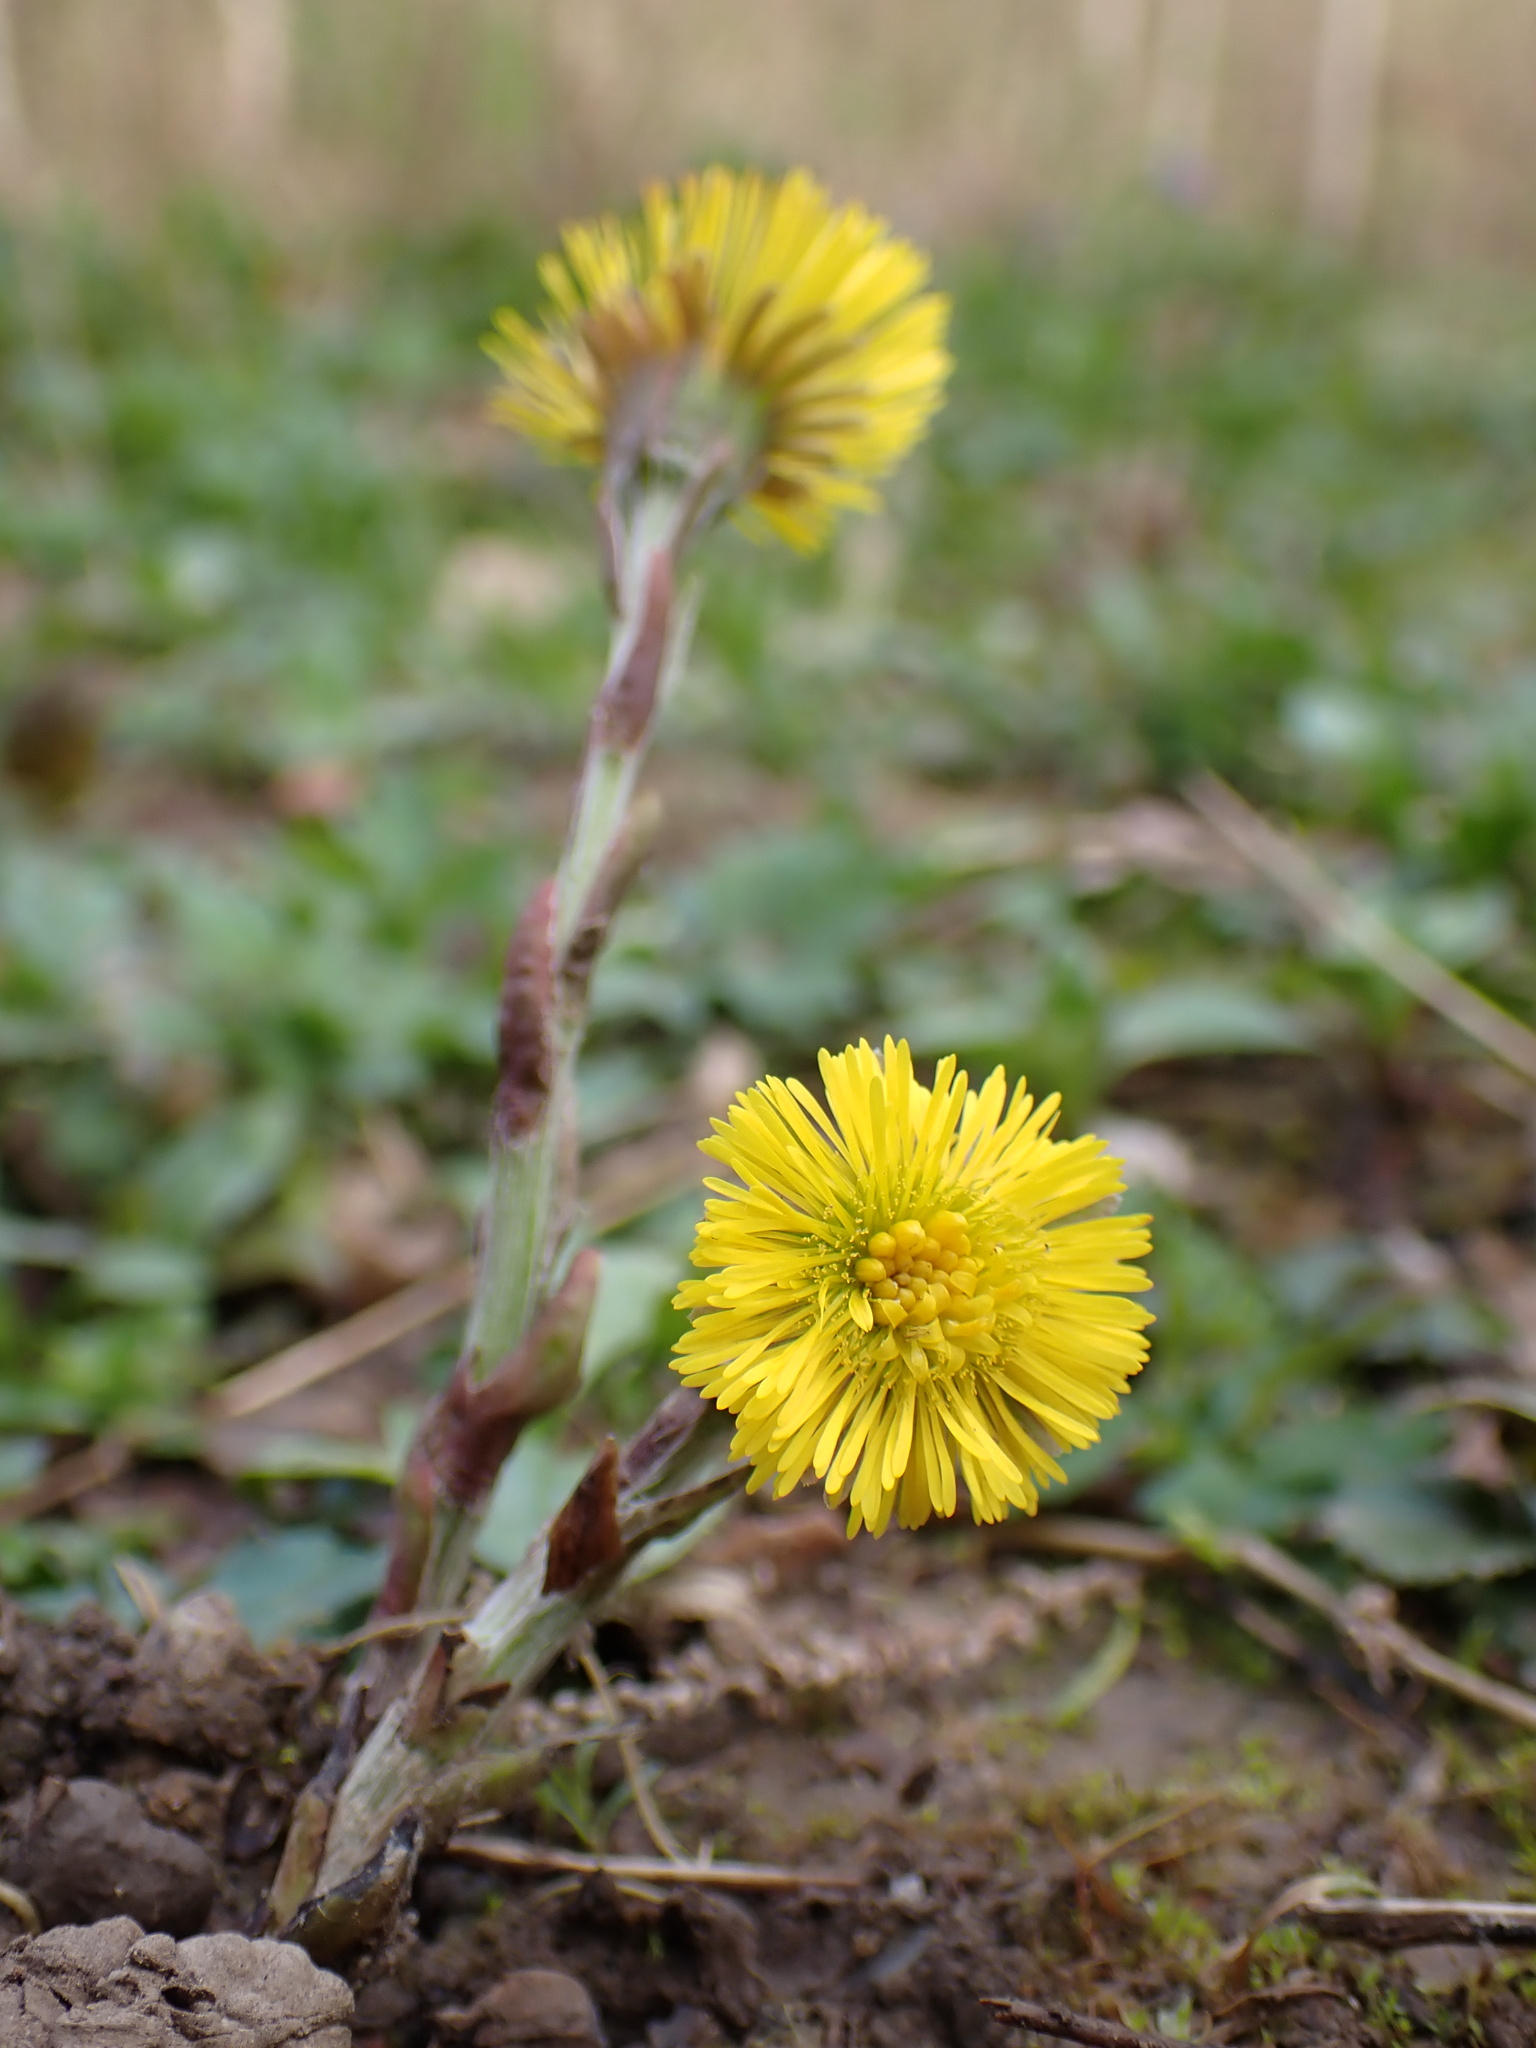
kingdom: Plantae
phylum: Tracheophyta
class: Magnoliopsida
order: Asterales
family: Asteraceae
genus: Tussilago
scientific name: Tussilago farfara
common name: Coltsfoot
